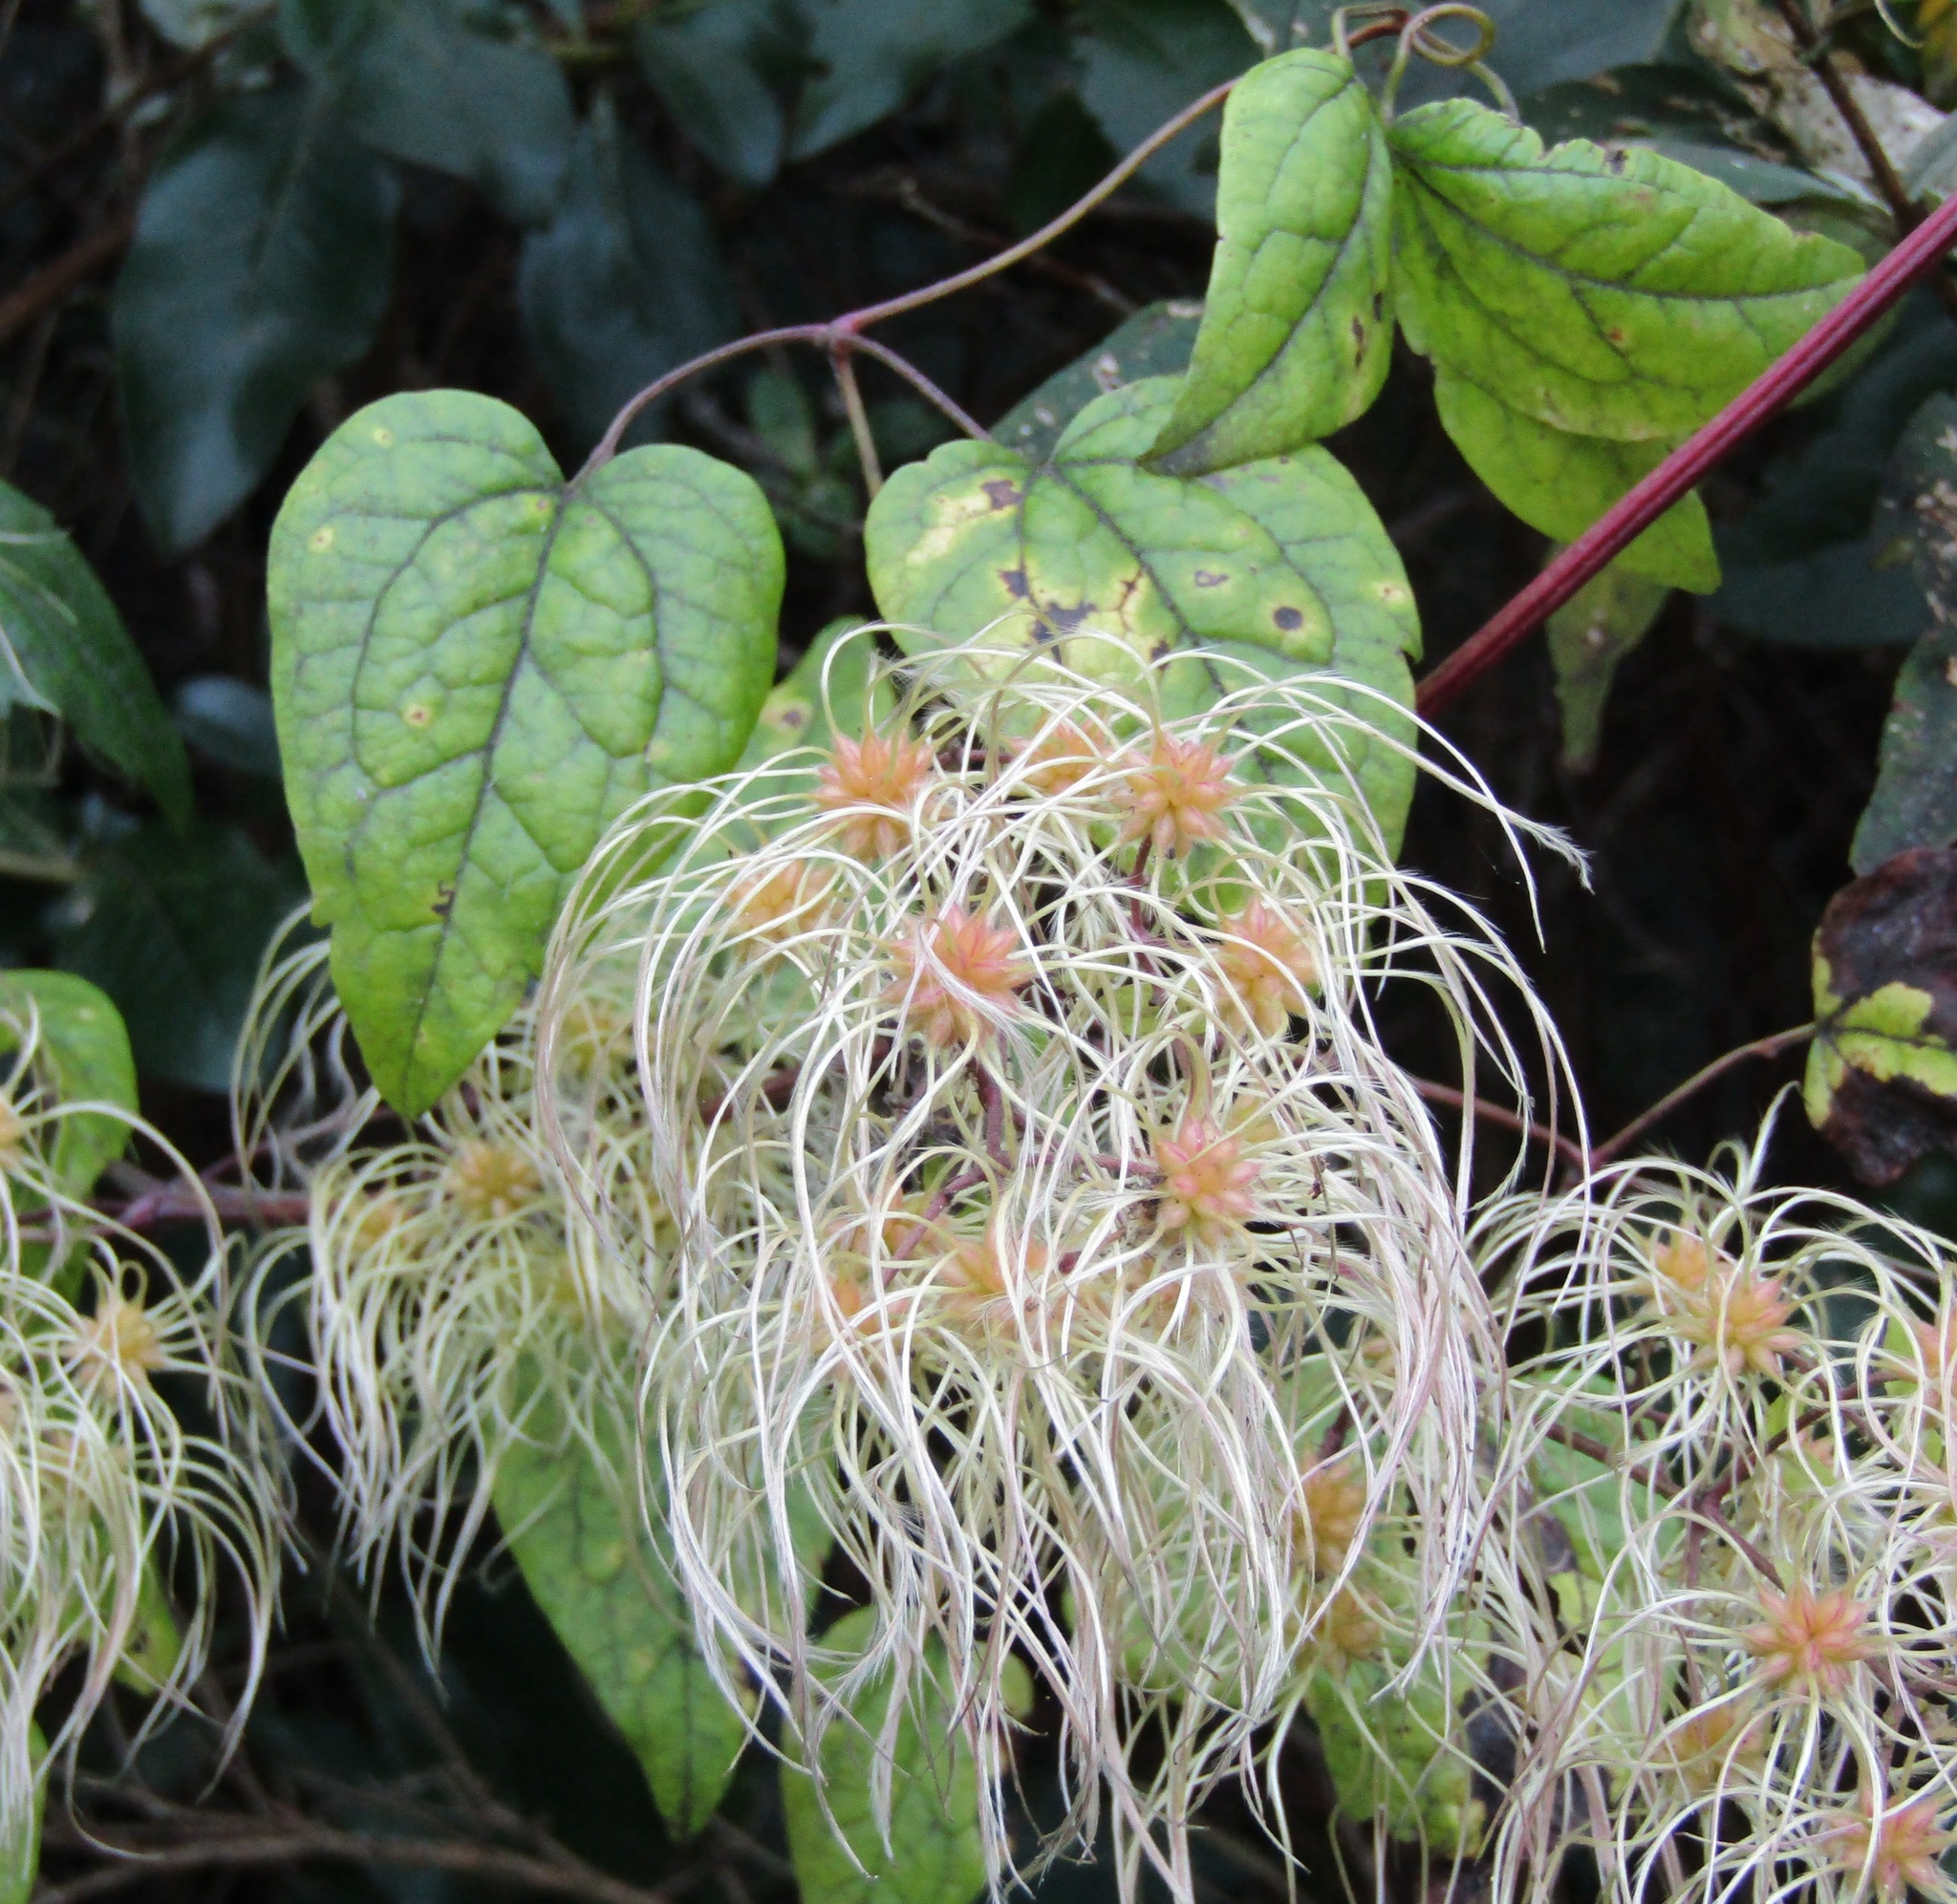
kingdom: Plantae
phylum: Tracheophyta
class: Magnoliopsida
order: Ranunculales
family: Ranunculaceae
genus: Clematis
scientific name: Clematis vitalba
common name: Evergreen clematis
